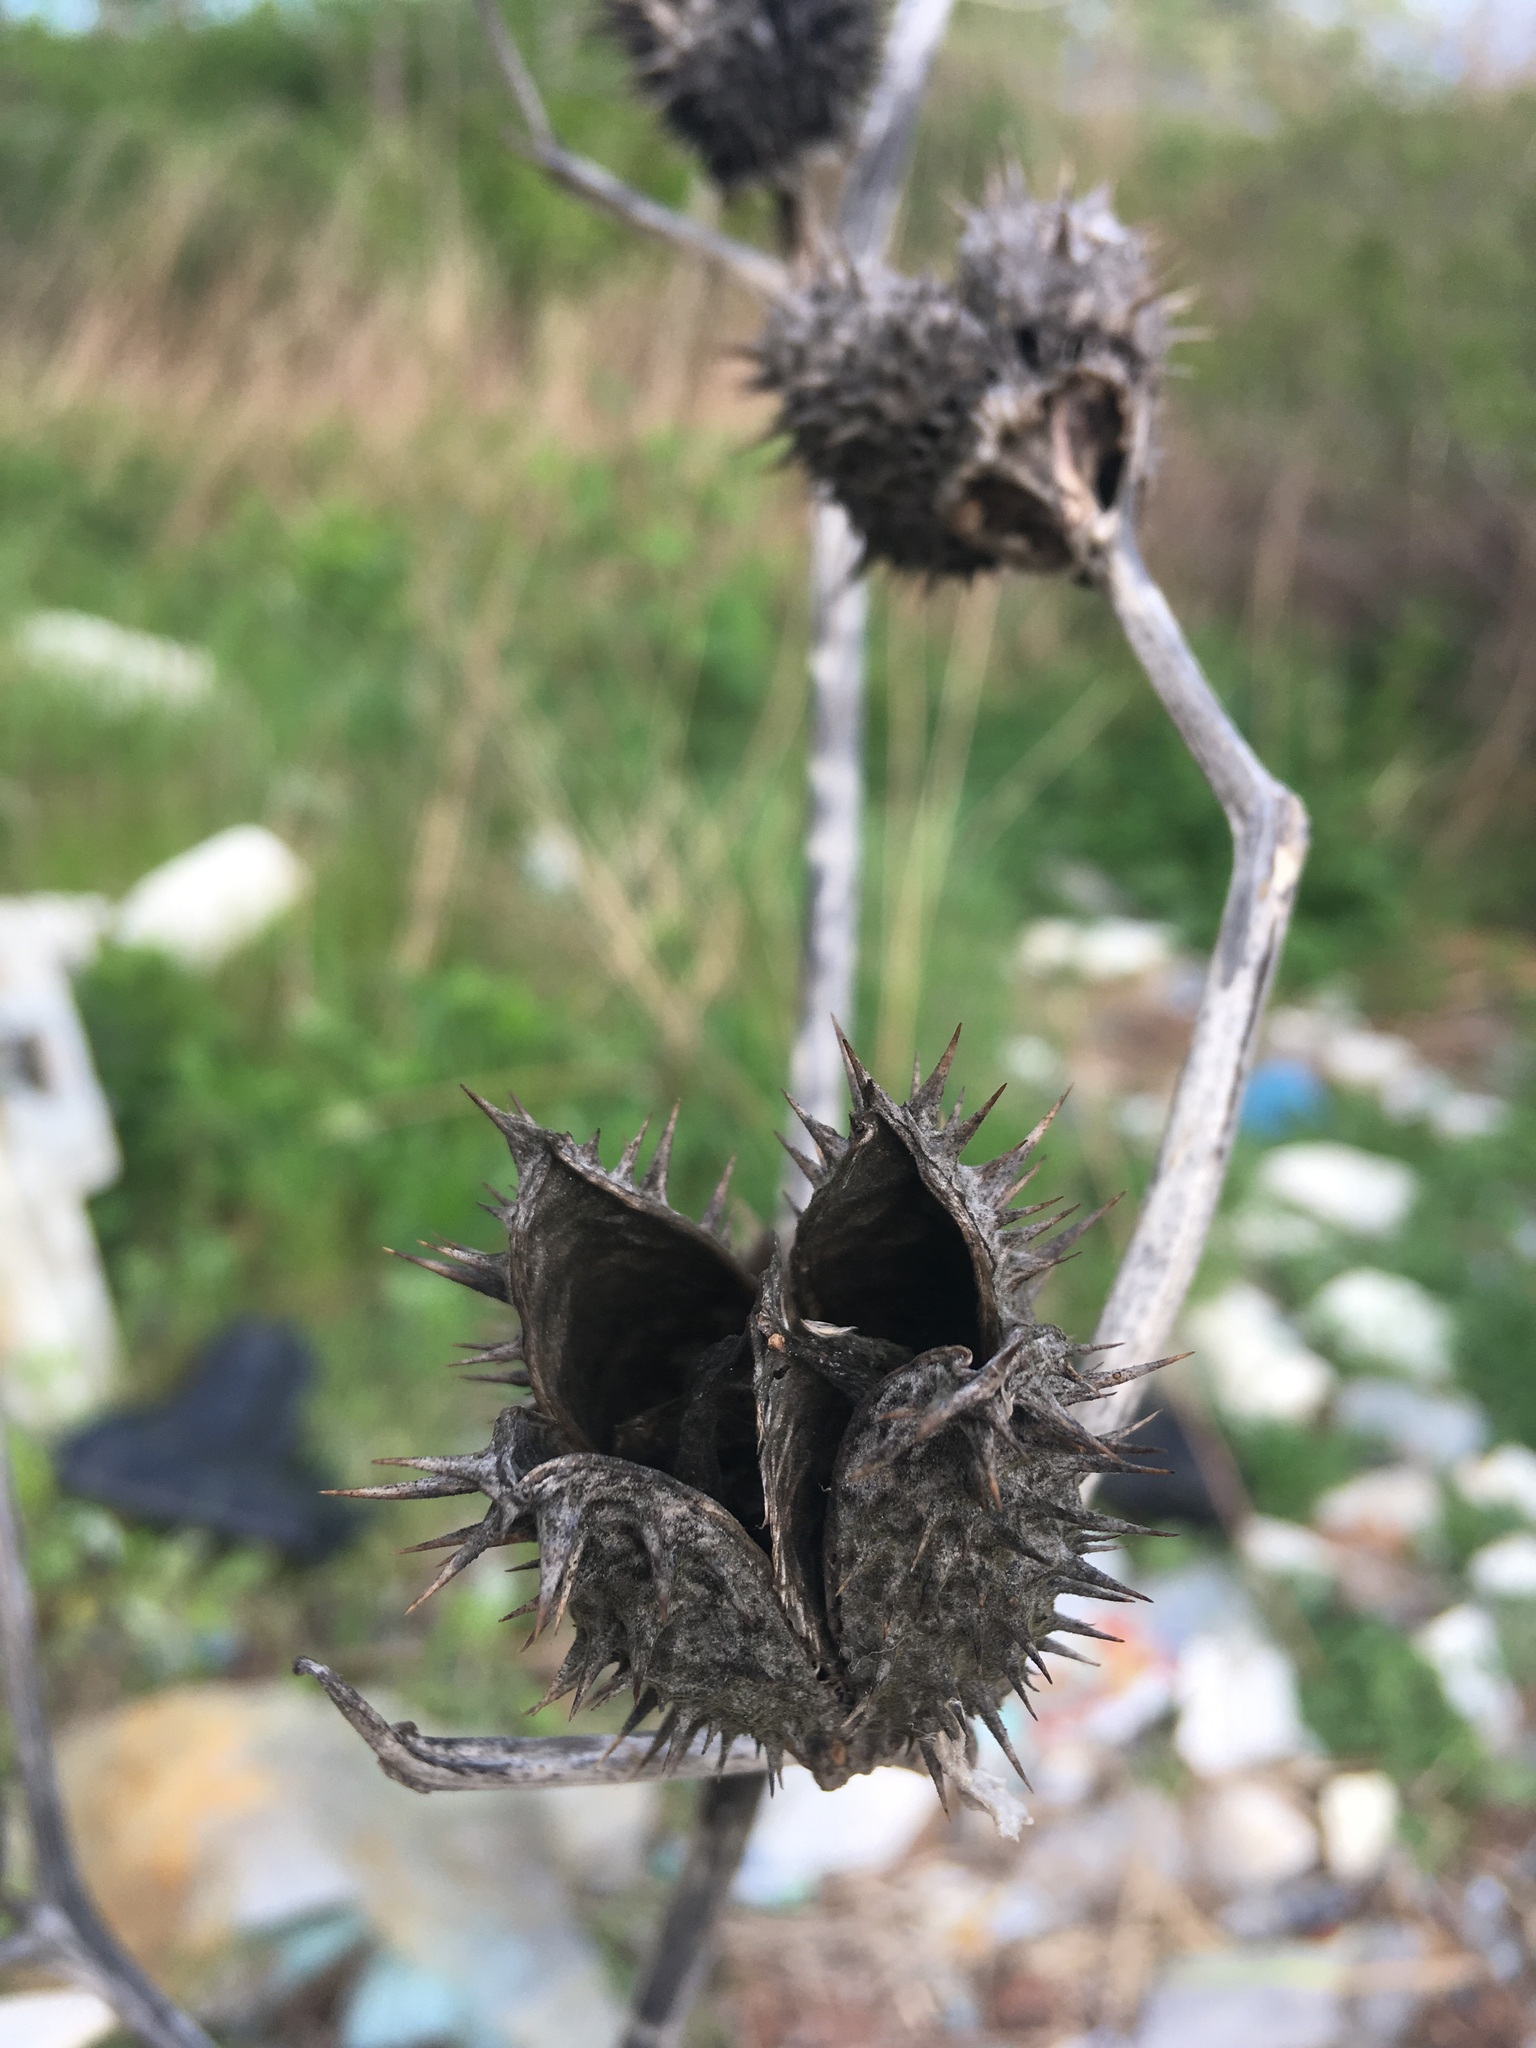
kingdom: Plantae
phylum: Tracheophyta
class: Magnoliopsida
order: Solanales
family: Solanaceae
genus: Datura
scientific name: Datura stramonium
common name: Thorn-apple
